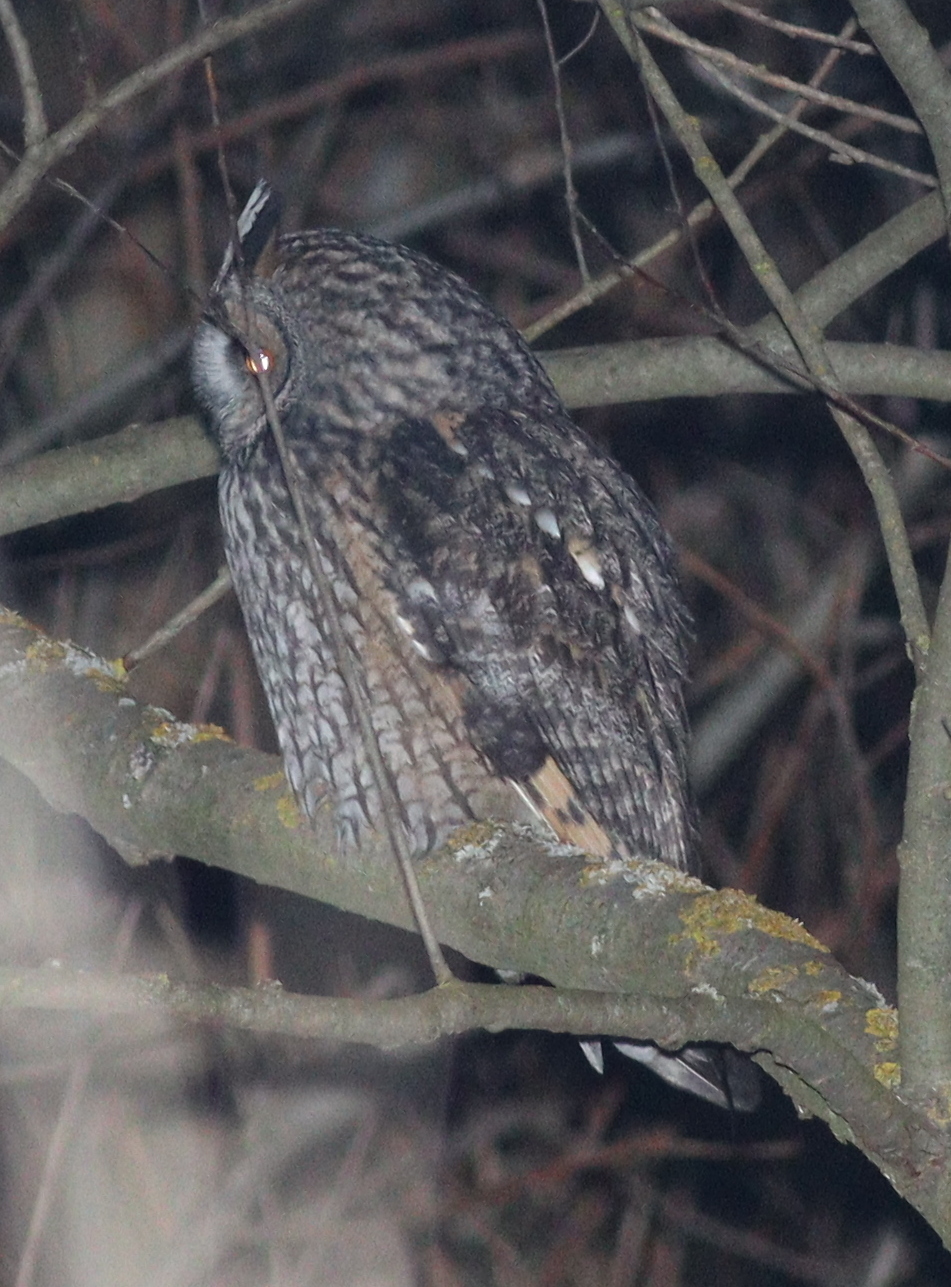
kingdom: Animalia
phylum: Chordata
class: Aves
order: Strigiformes
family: Strigidae
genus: Asio
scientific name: Asio otus
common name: Long-eared owl
